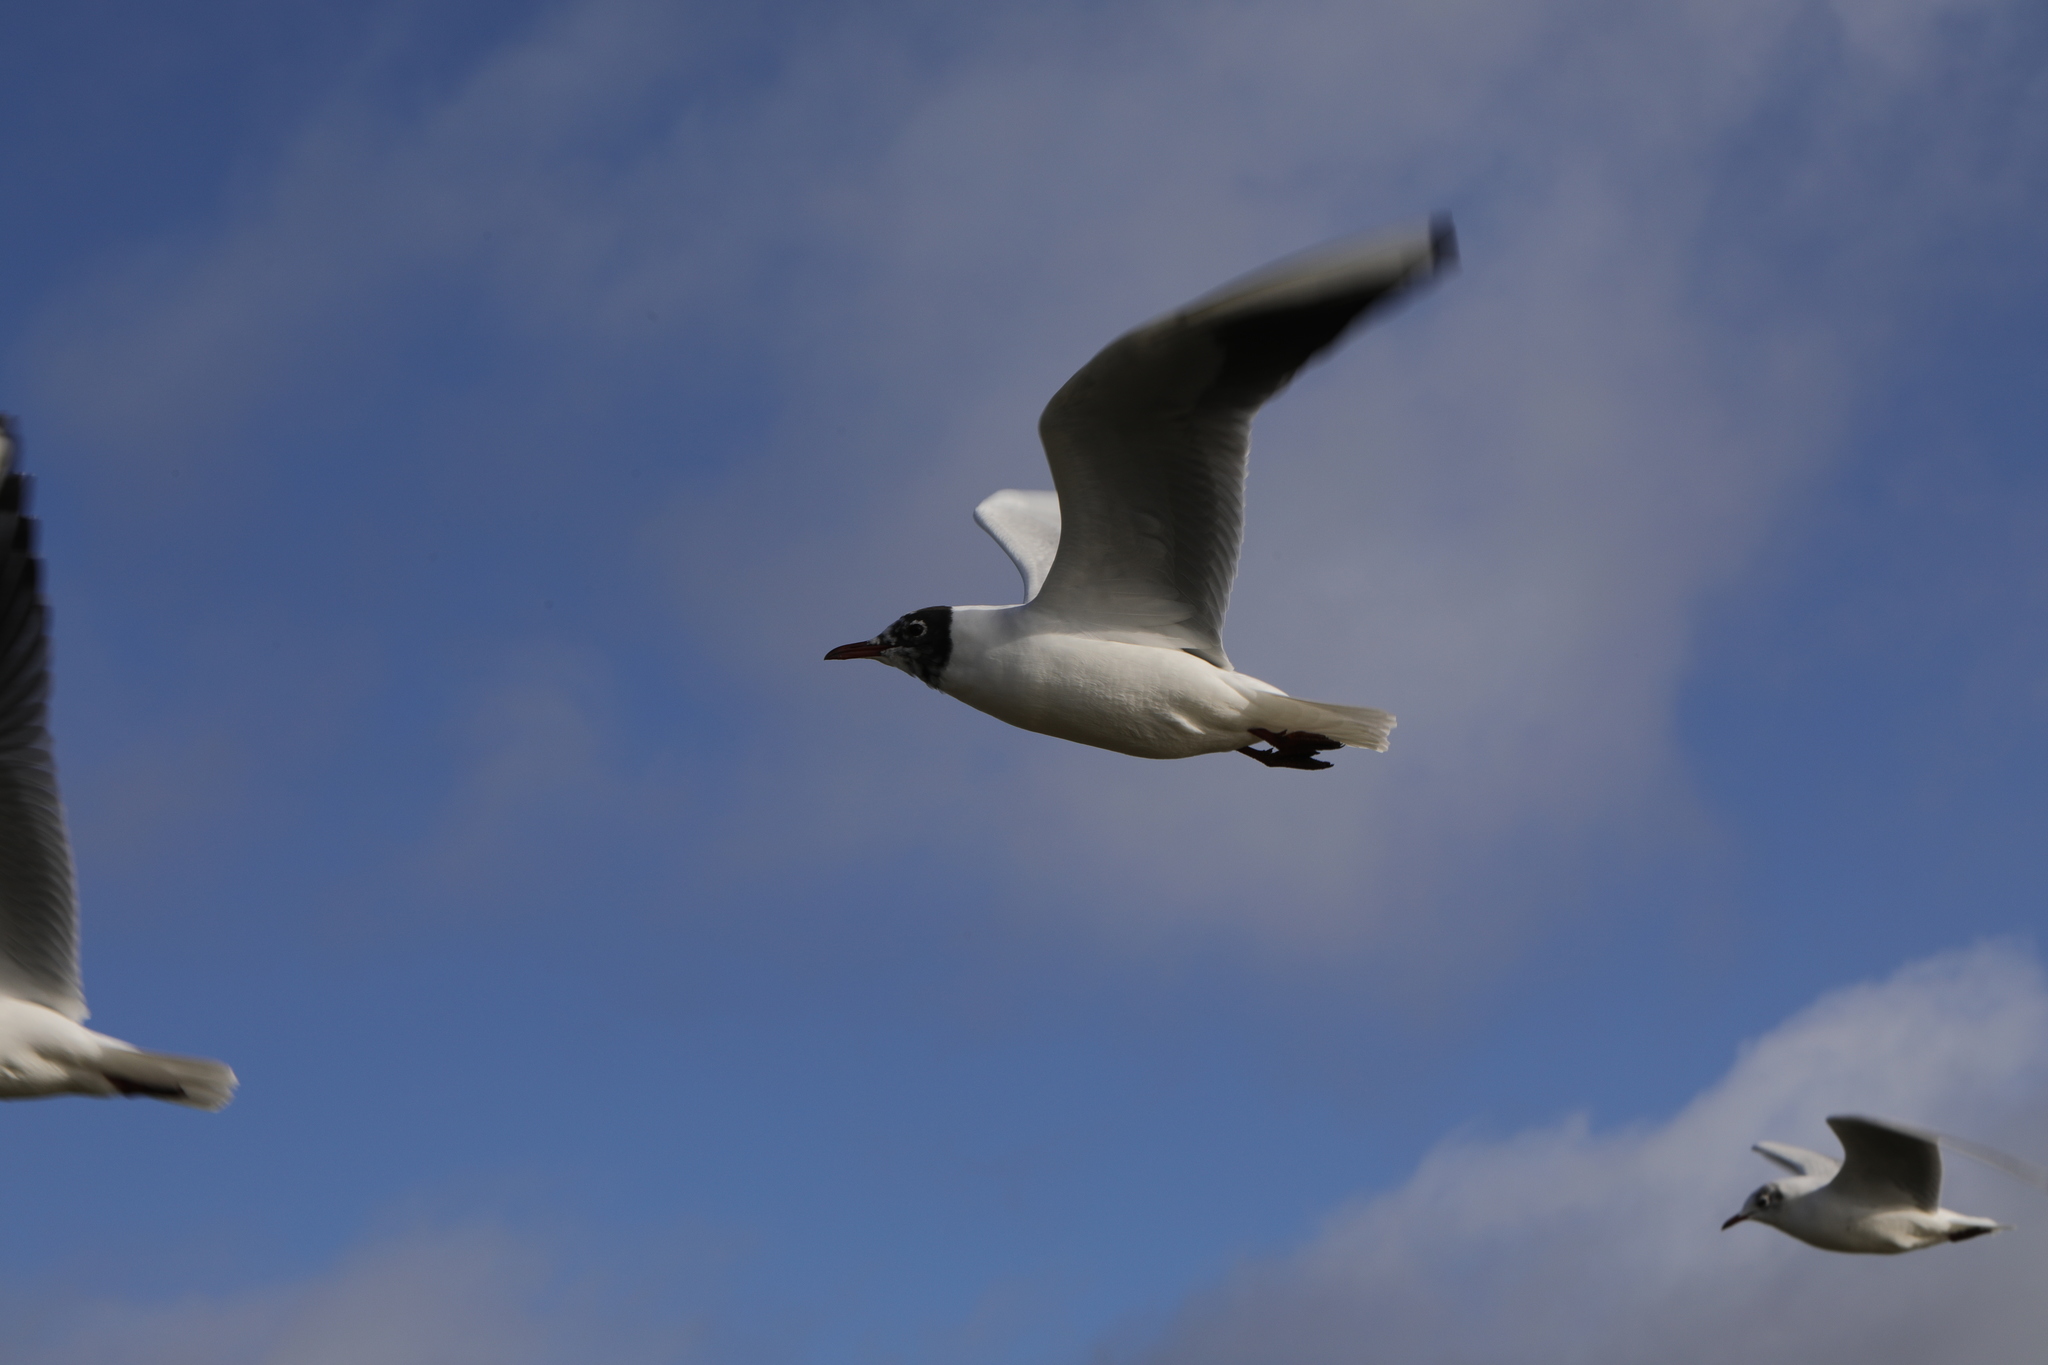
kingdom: Animalia
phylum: Chordata
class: Aves
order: Charadriiformes
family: Laridae
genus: Chroicocephalus
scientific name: Chroicocephalus ridibundus
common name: Black-headed gull
